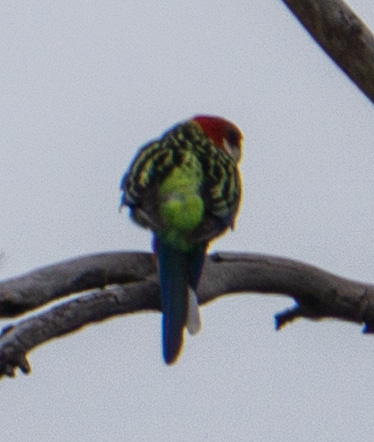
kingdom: Animalia
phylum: Chordata
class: Aves
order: Psittaciformes
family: Psittacidae
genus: Platycercus
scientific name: Platycercus eximius
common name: Eastern rosella
